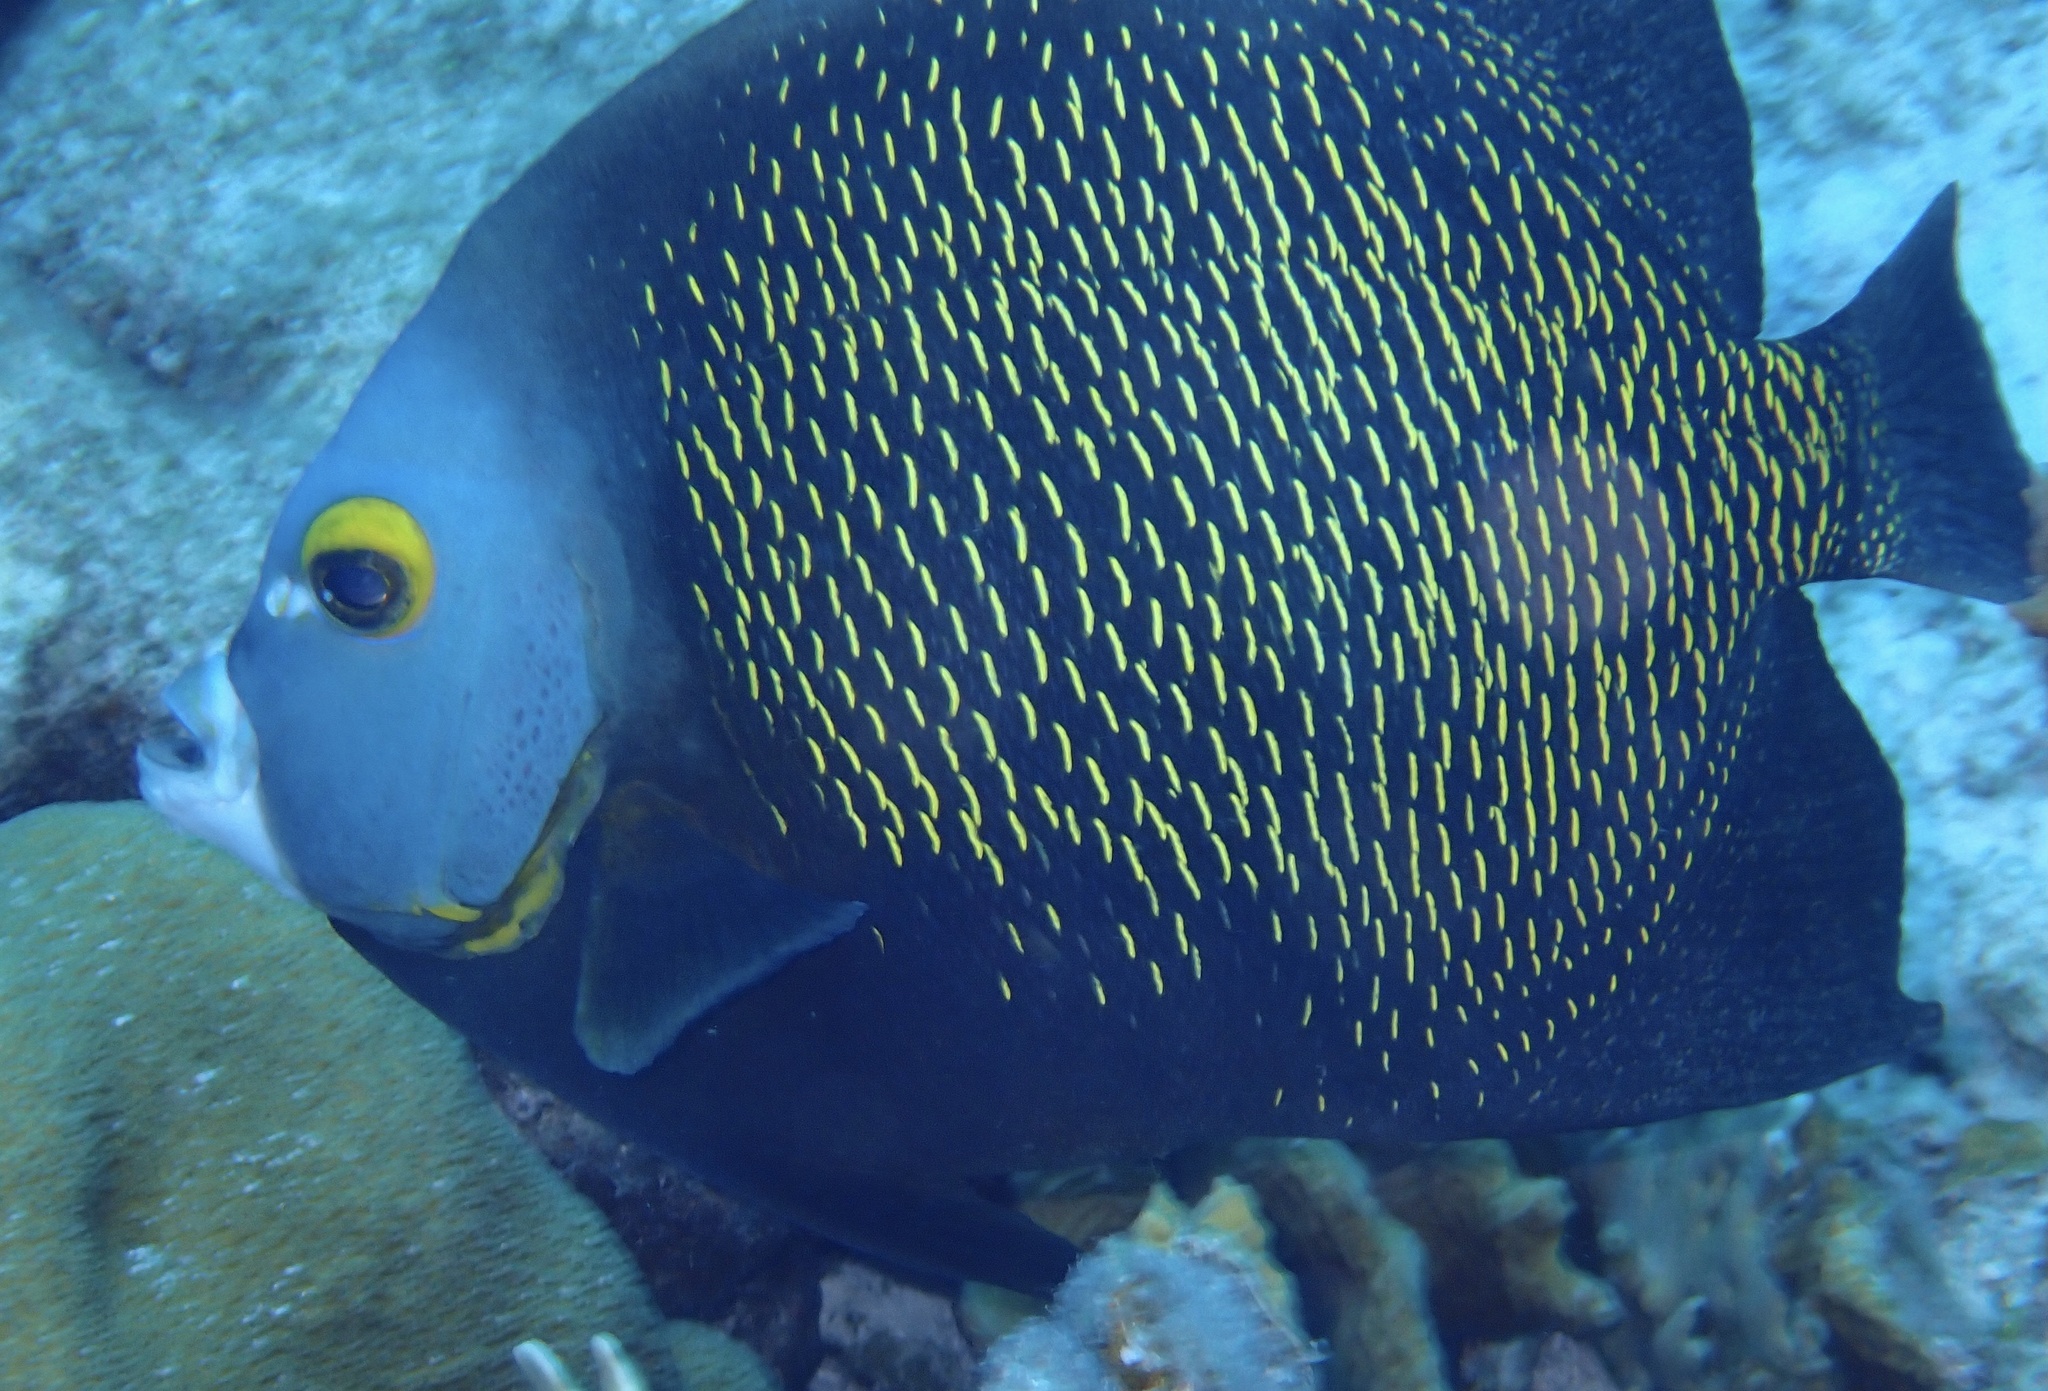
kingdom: Animalia
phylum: Chordata
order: Perciformes
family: Pomacanthidae
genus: Pomacanthus
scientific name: Pomacanthus paru
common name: French angelfish
